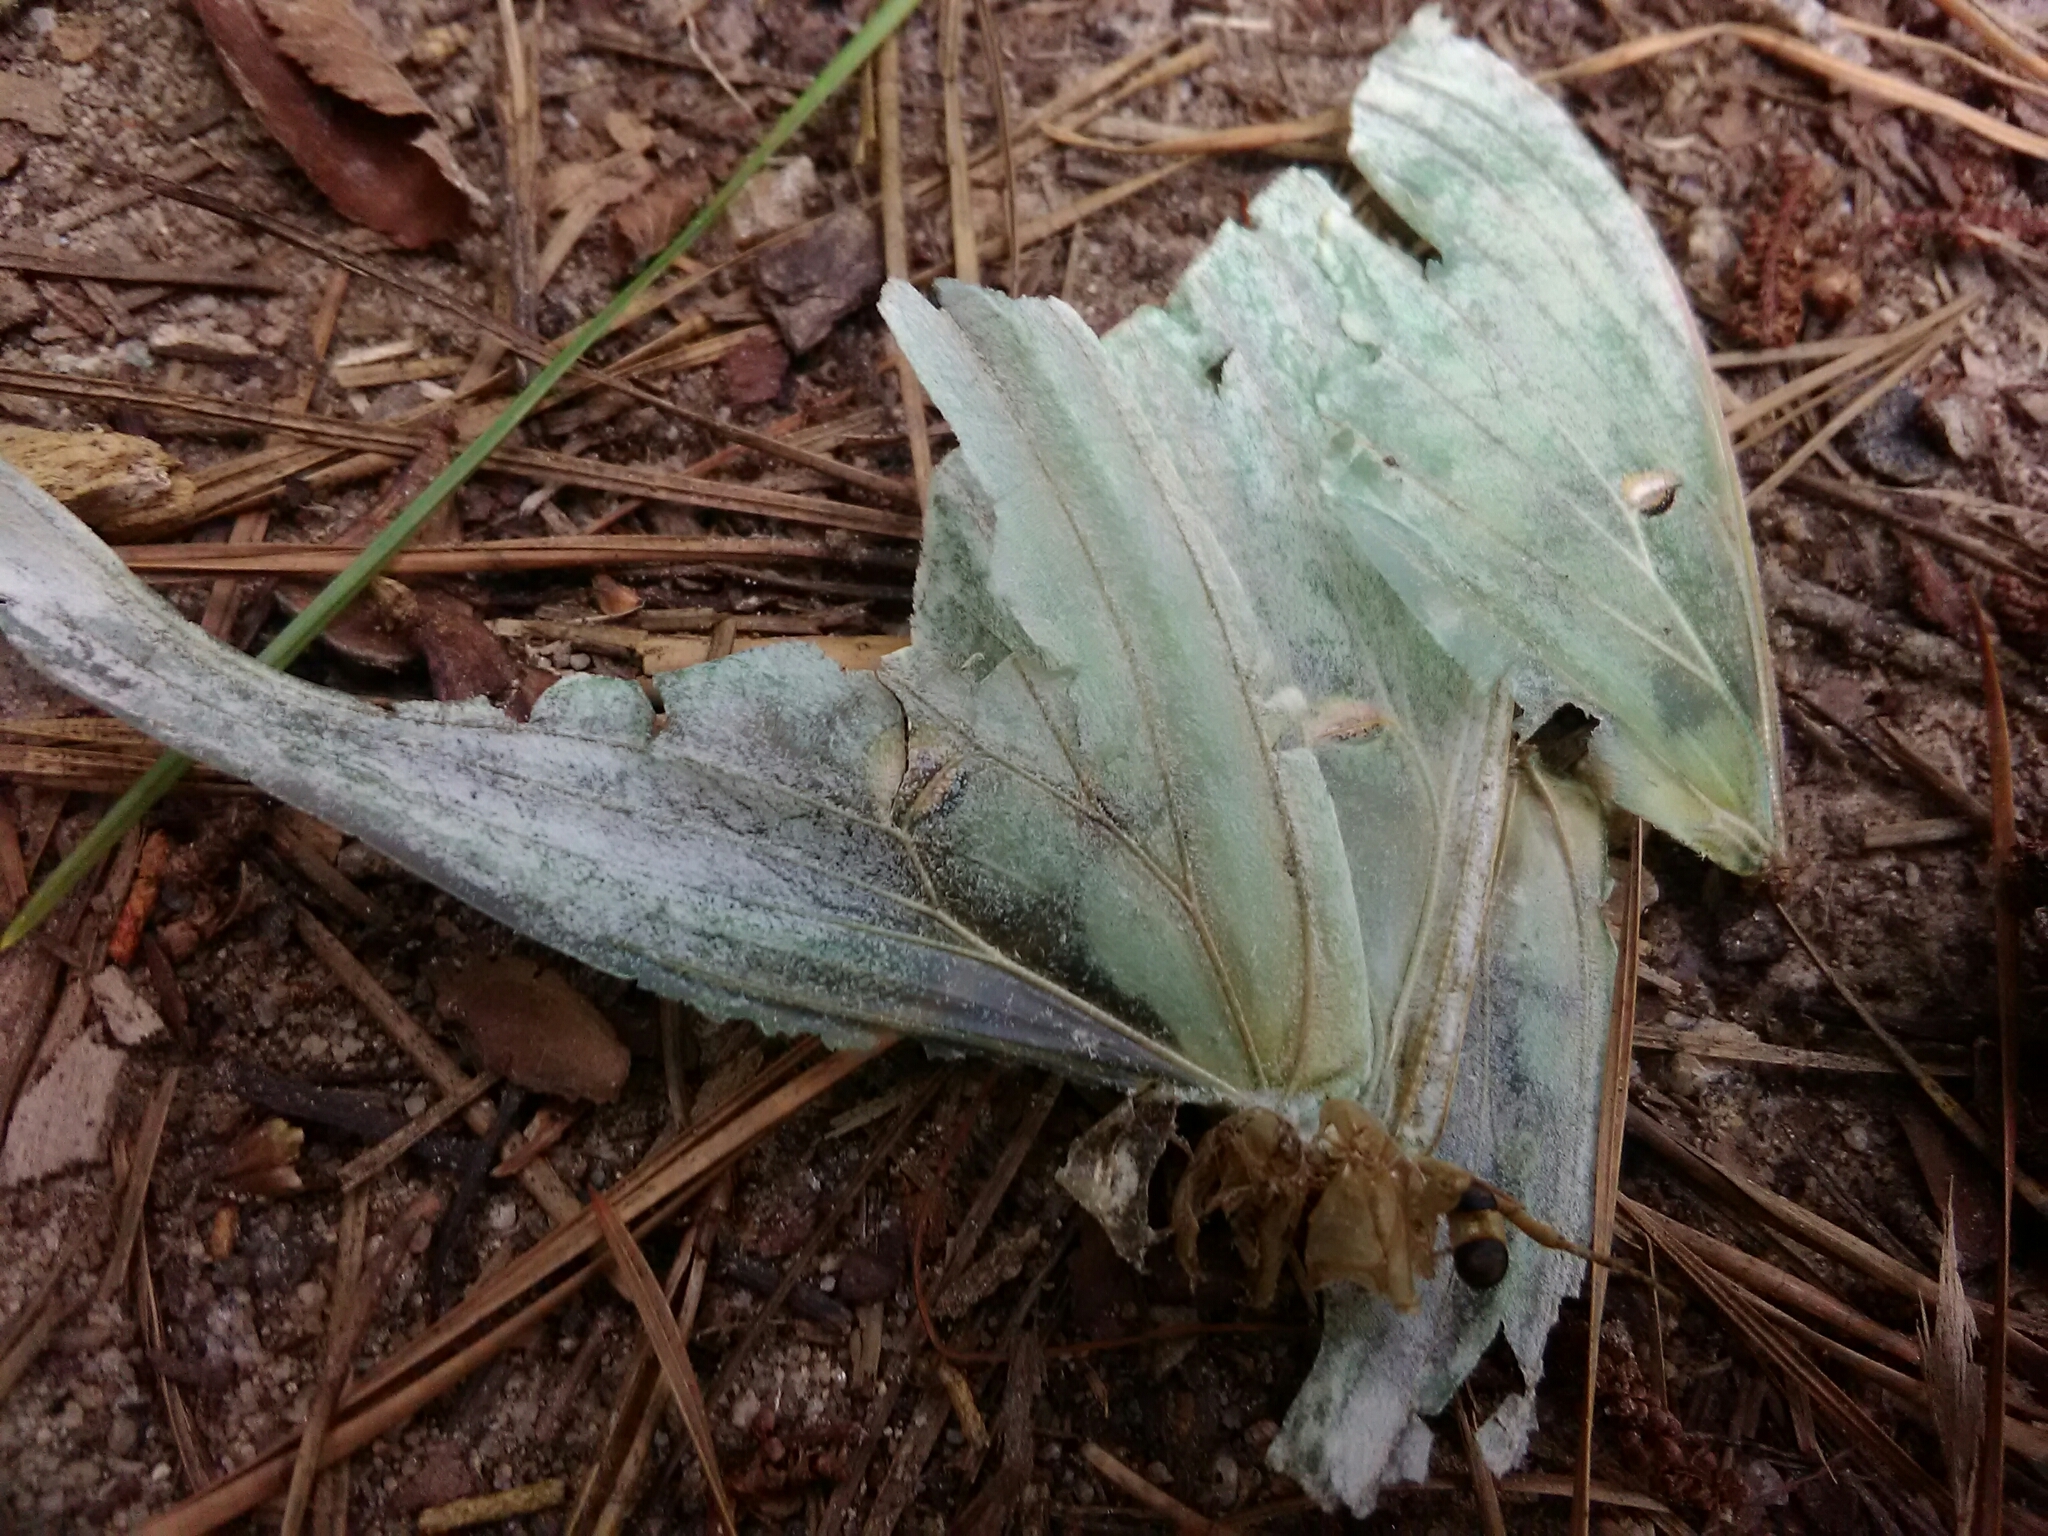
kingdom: Animalia
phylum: Arthropoda
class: Insecta
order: Lepidoptera
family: Saturniidae
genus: Actias
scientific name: Actias luna
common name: Luna moth
